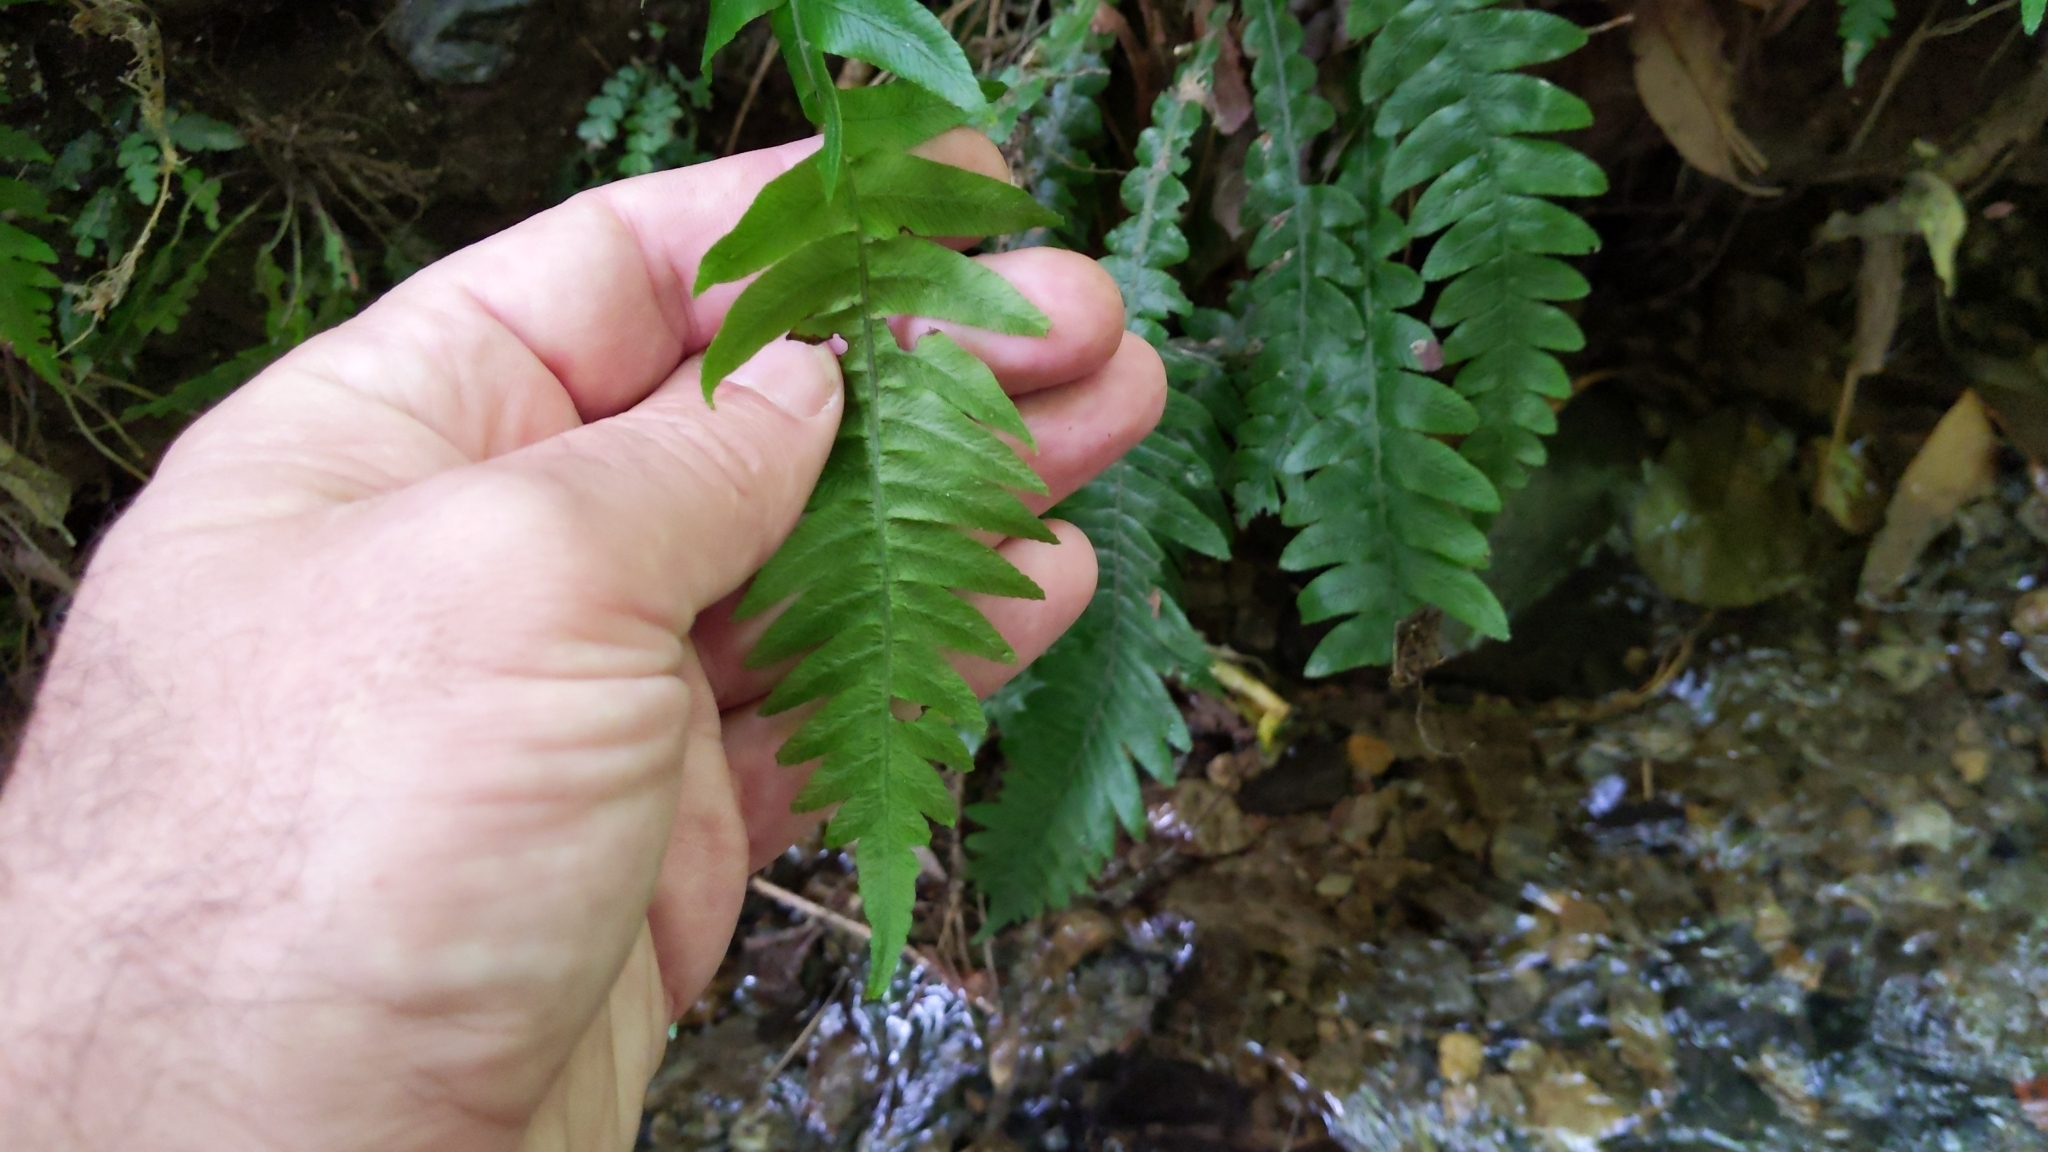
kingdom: Plantae
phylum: Tracheophyta
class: Polypodiopsida
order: Polypodiales
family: Blechnaceae
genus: Austroblechnum
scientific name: Austroblechnum lanceolatum
